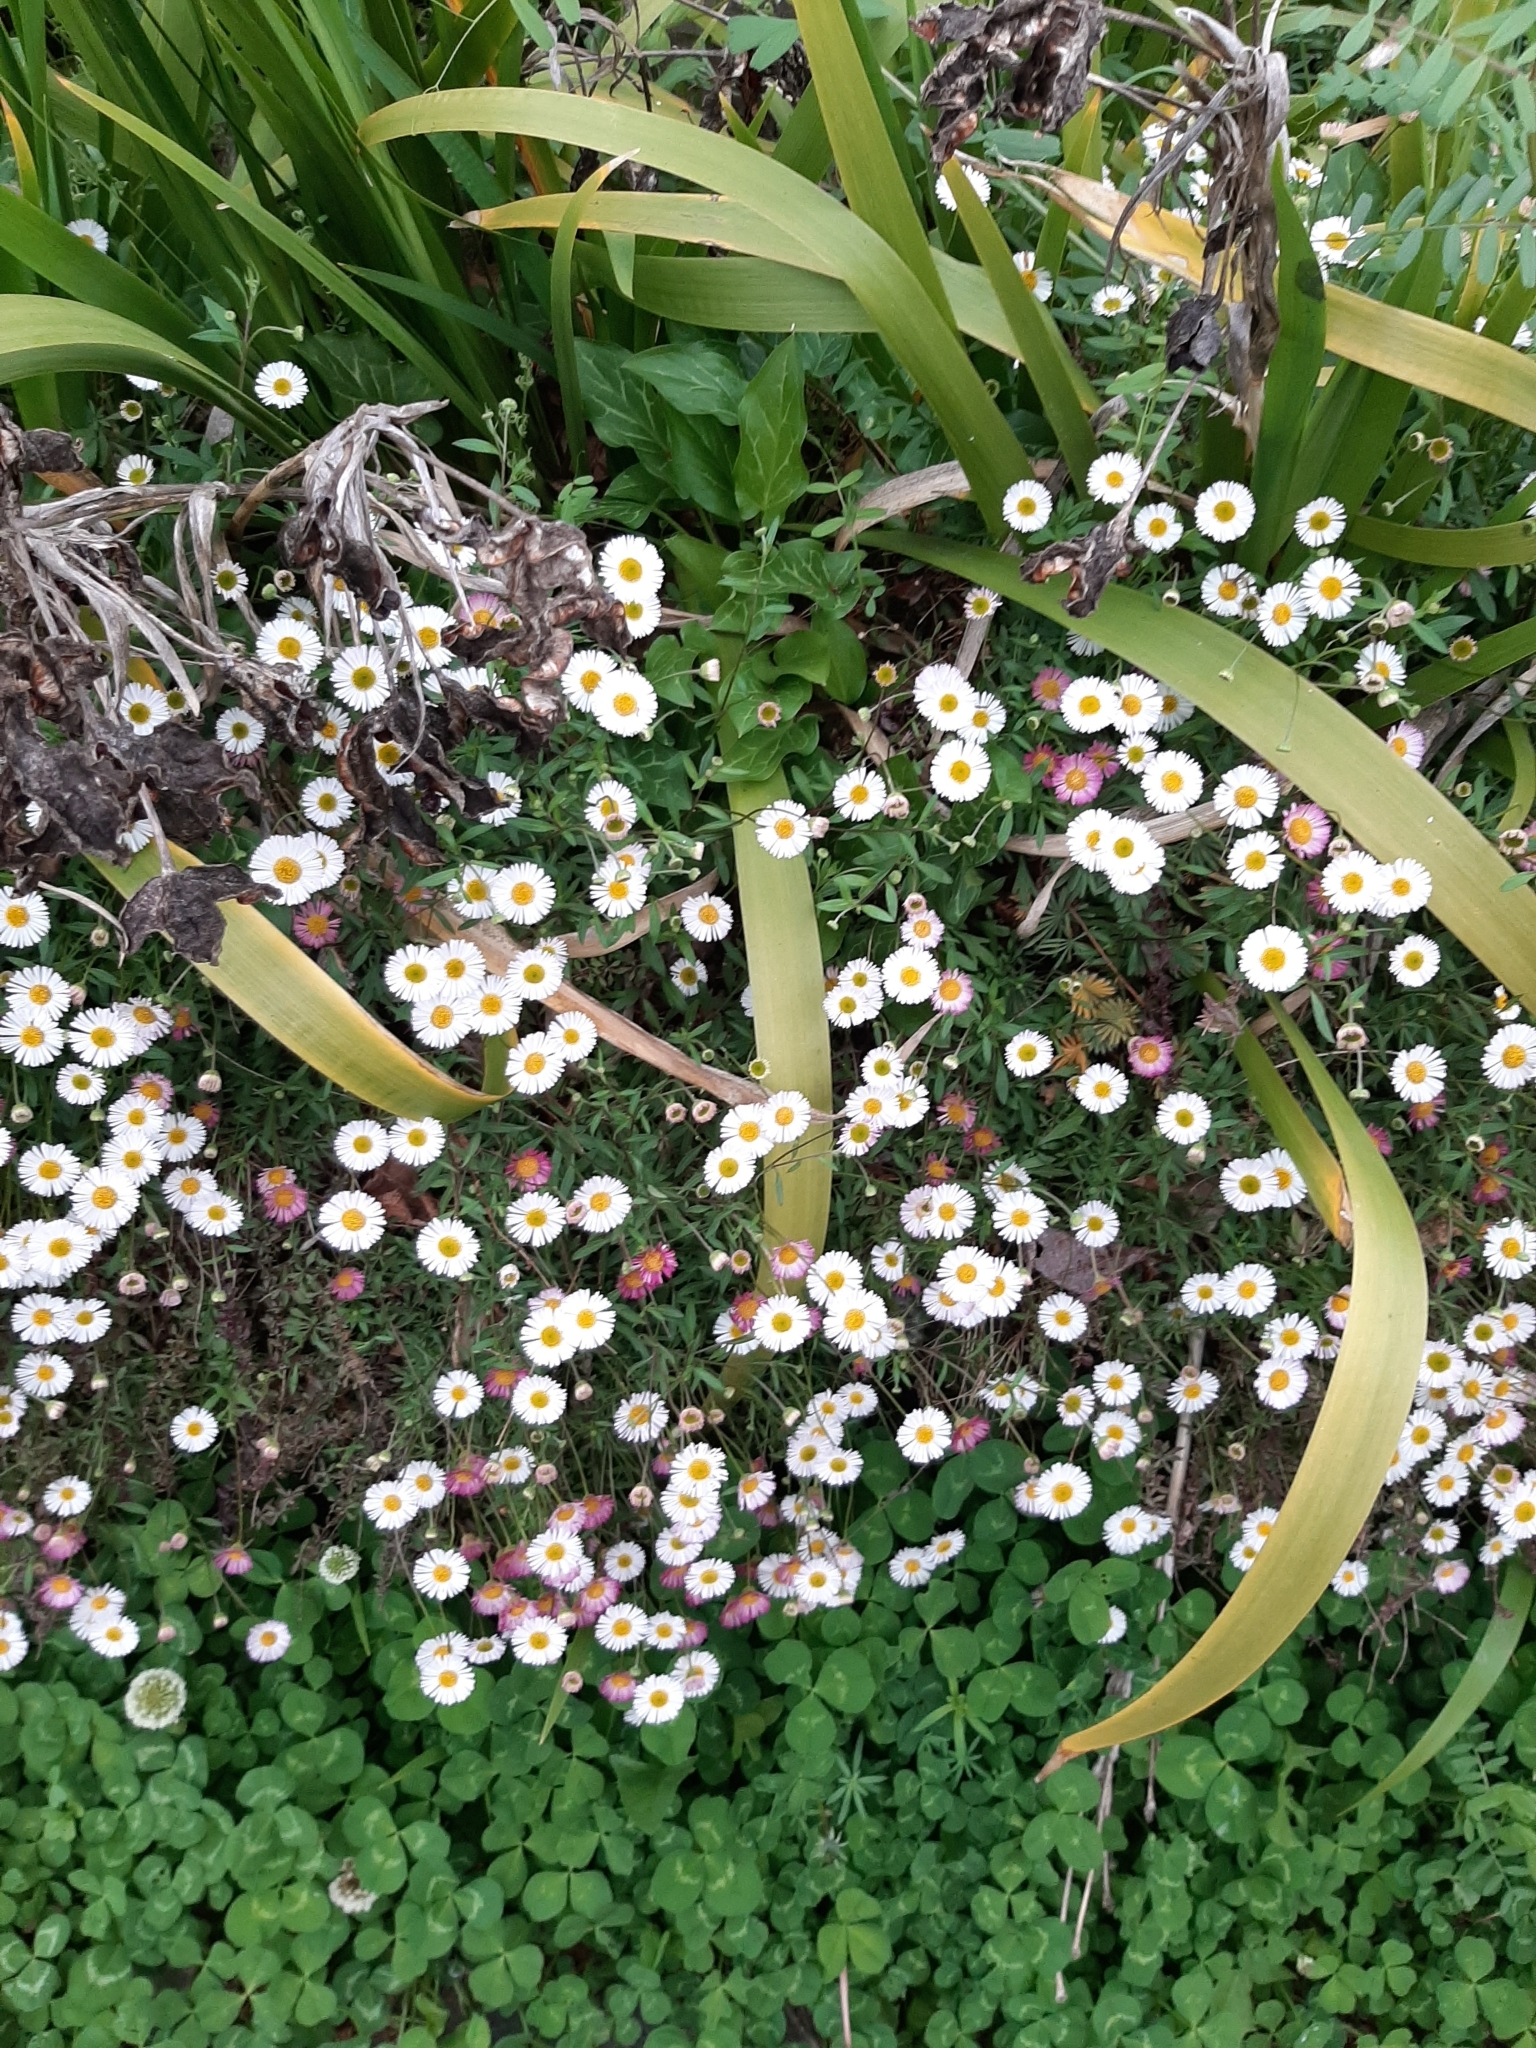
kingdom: Plantae
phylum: Tracheophyta
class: Magnoliopsida
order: Asterales
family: Asteraceae
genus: Erigeron
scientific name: Erigeron karvinskianus
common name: Mexican fleabane
